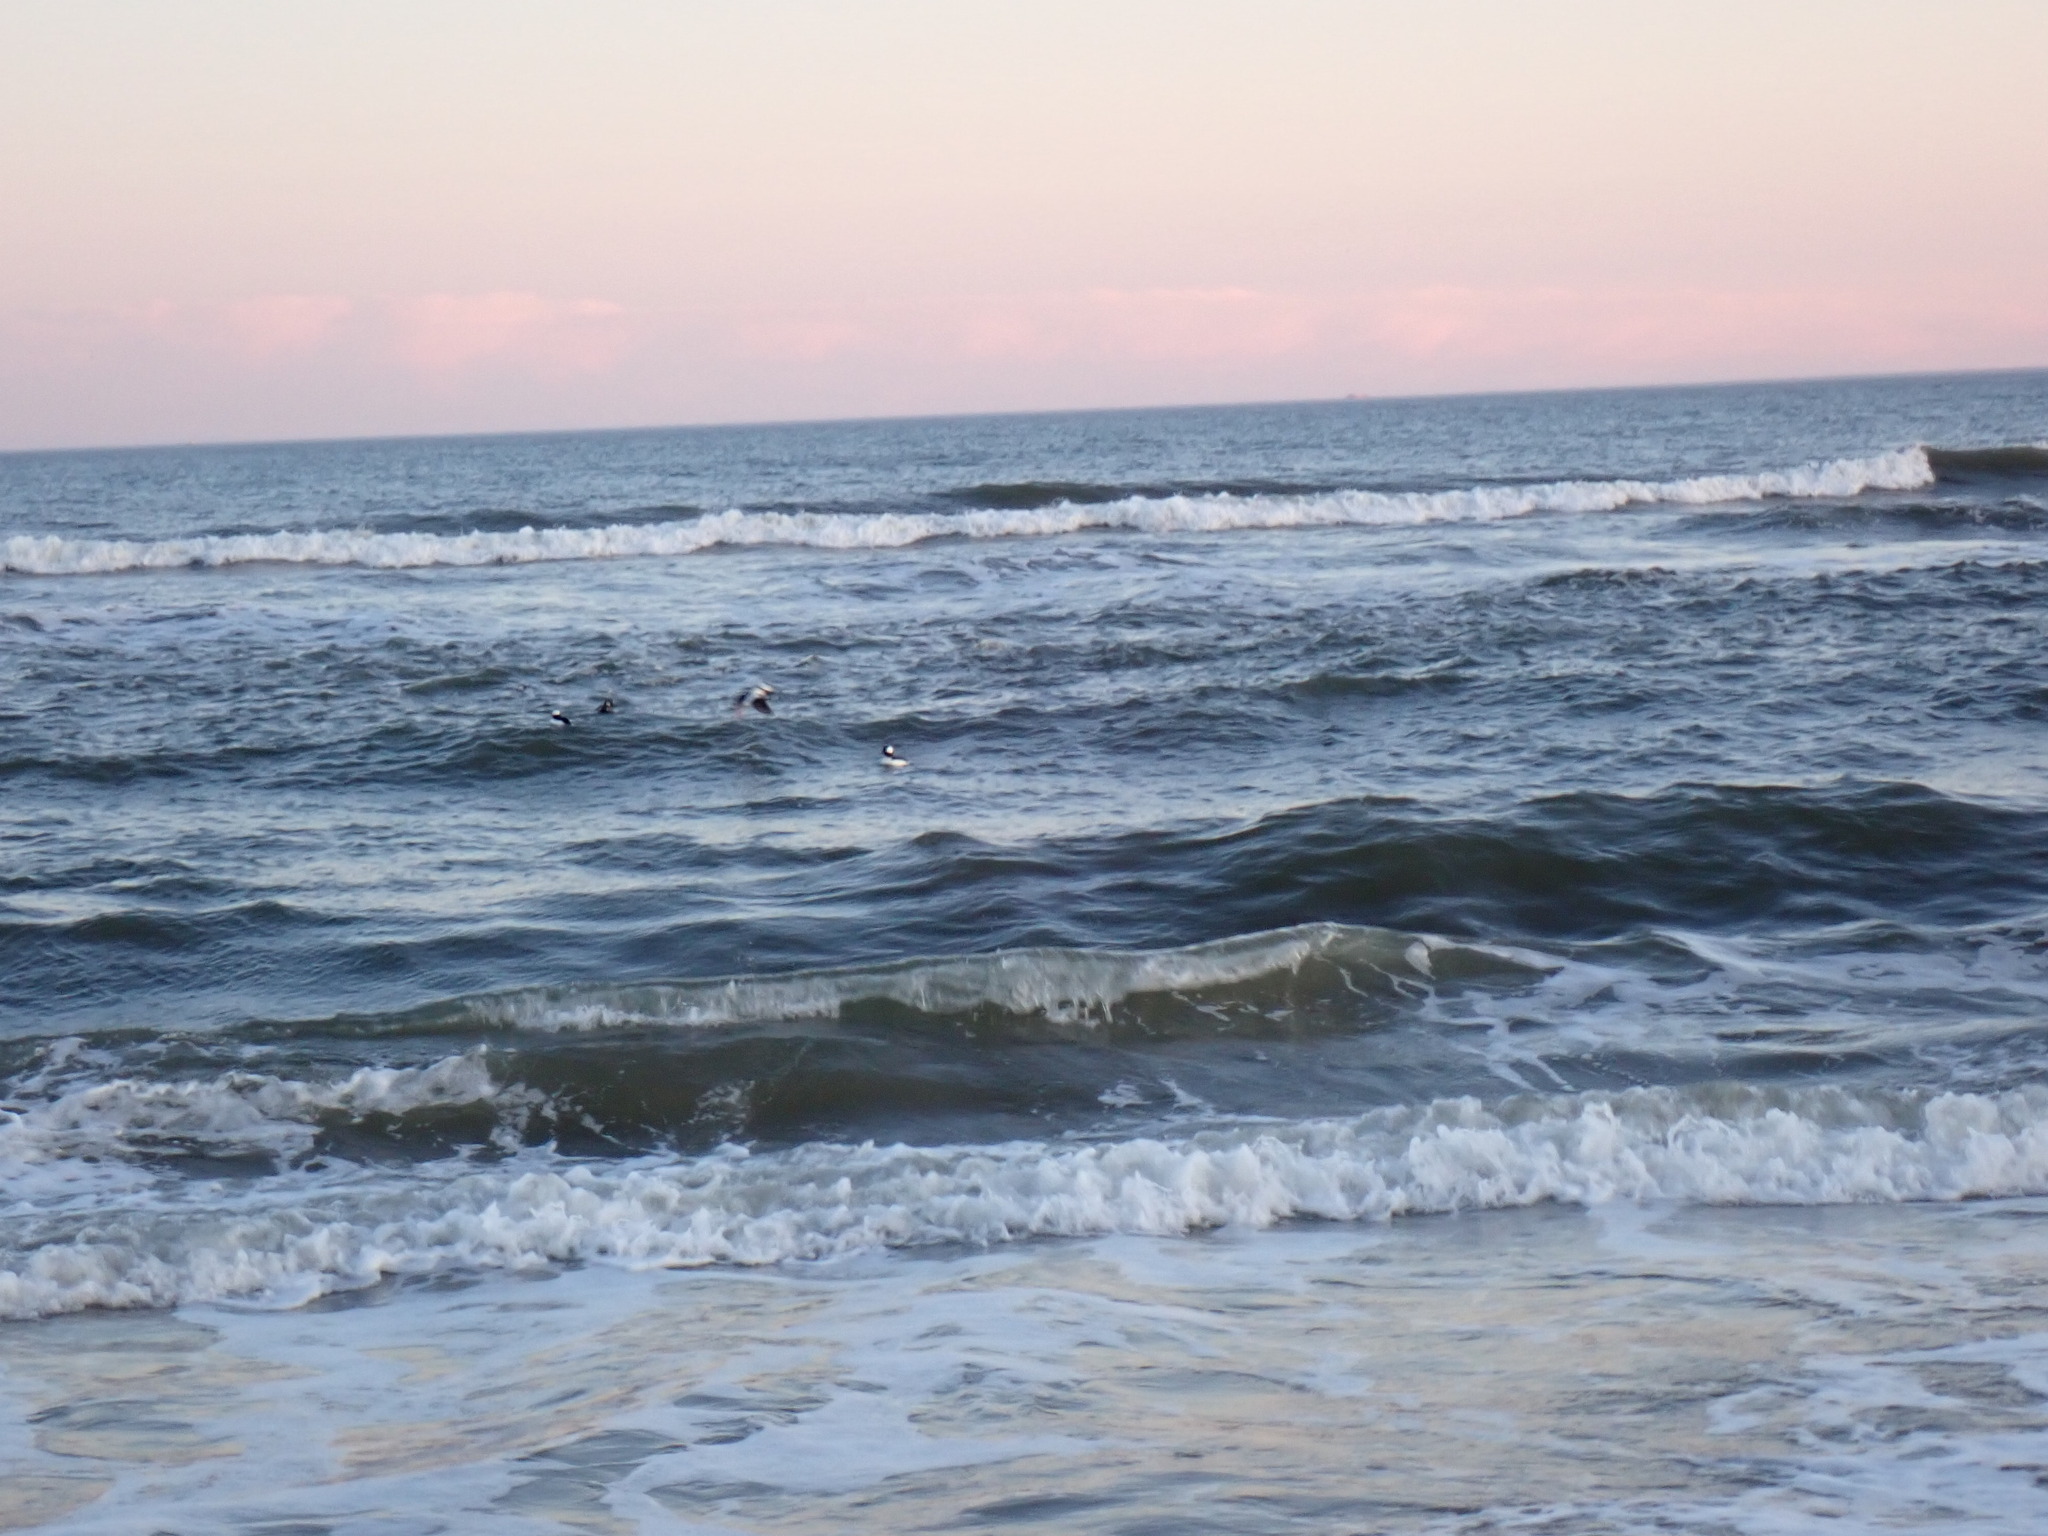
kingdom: Animalia
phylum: Chordata
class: Aves
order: Anseriformes
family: Anatidae
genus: Bucephala
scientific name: Bucephala albeola
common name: Bufflehead
